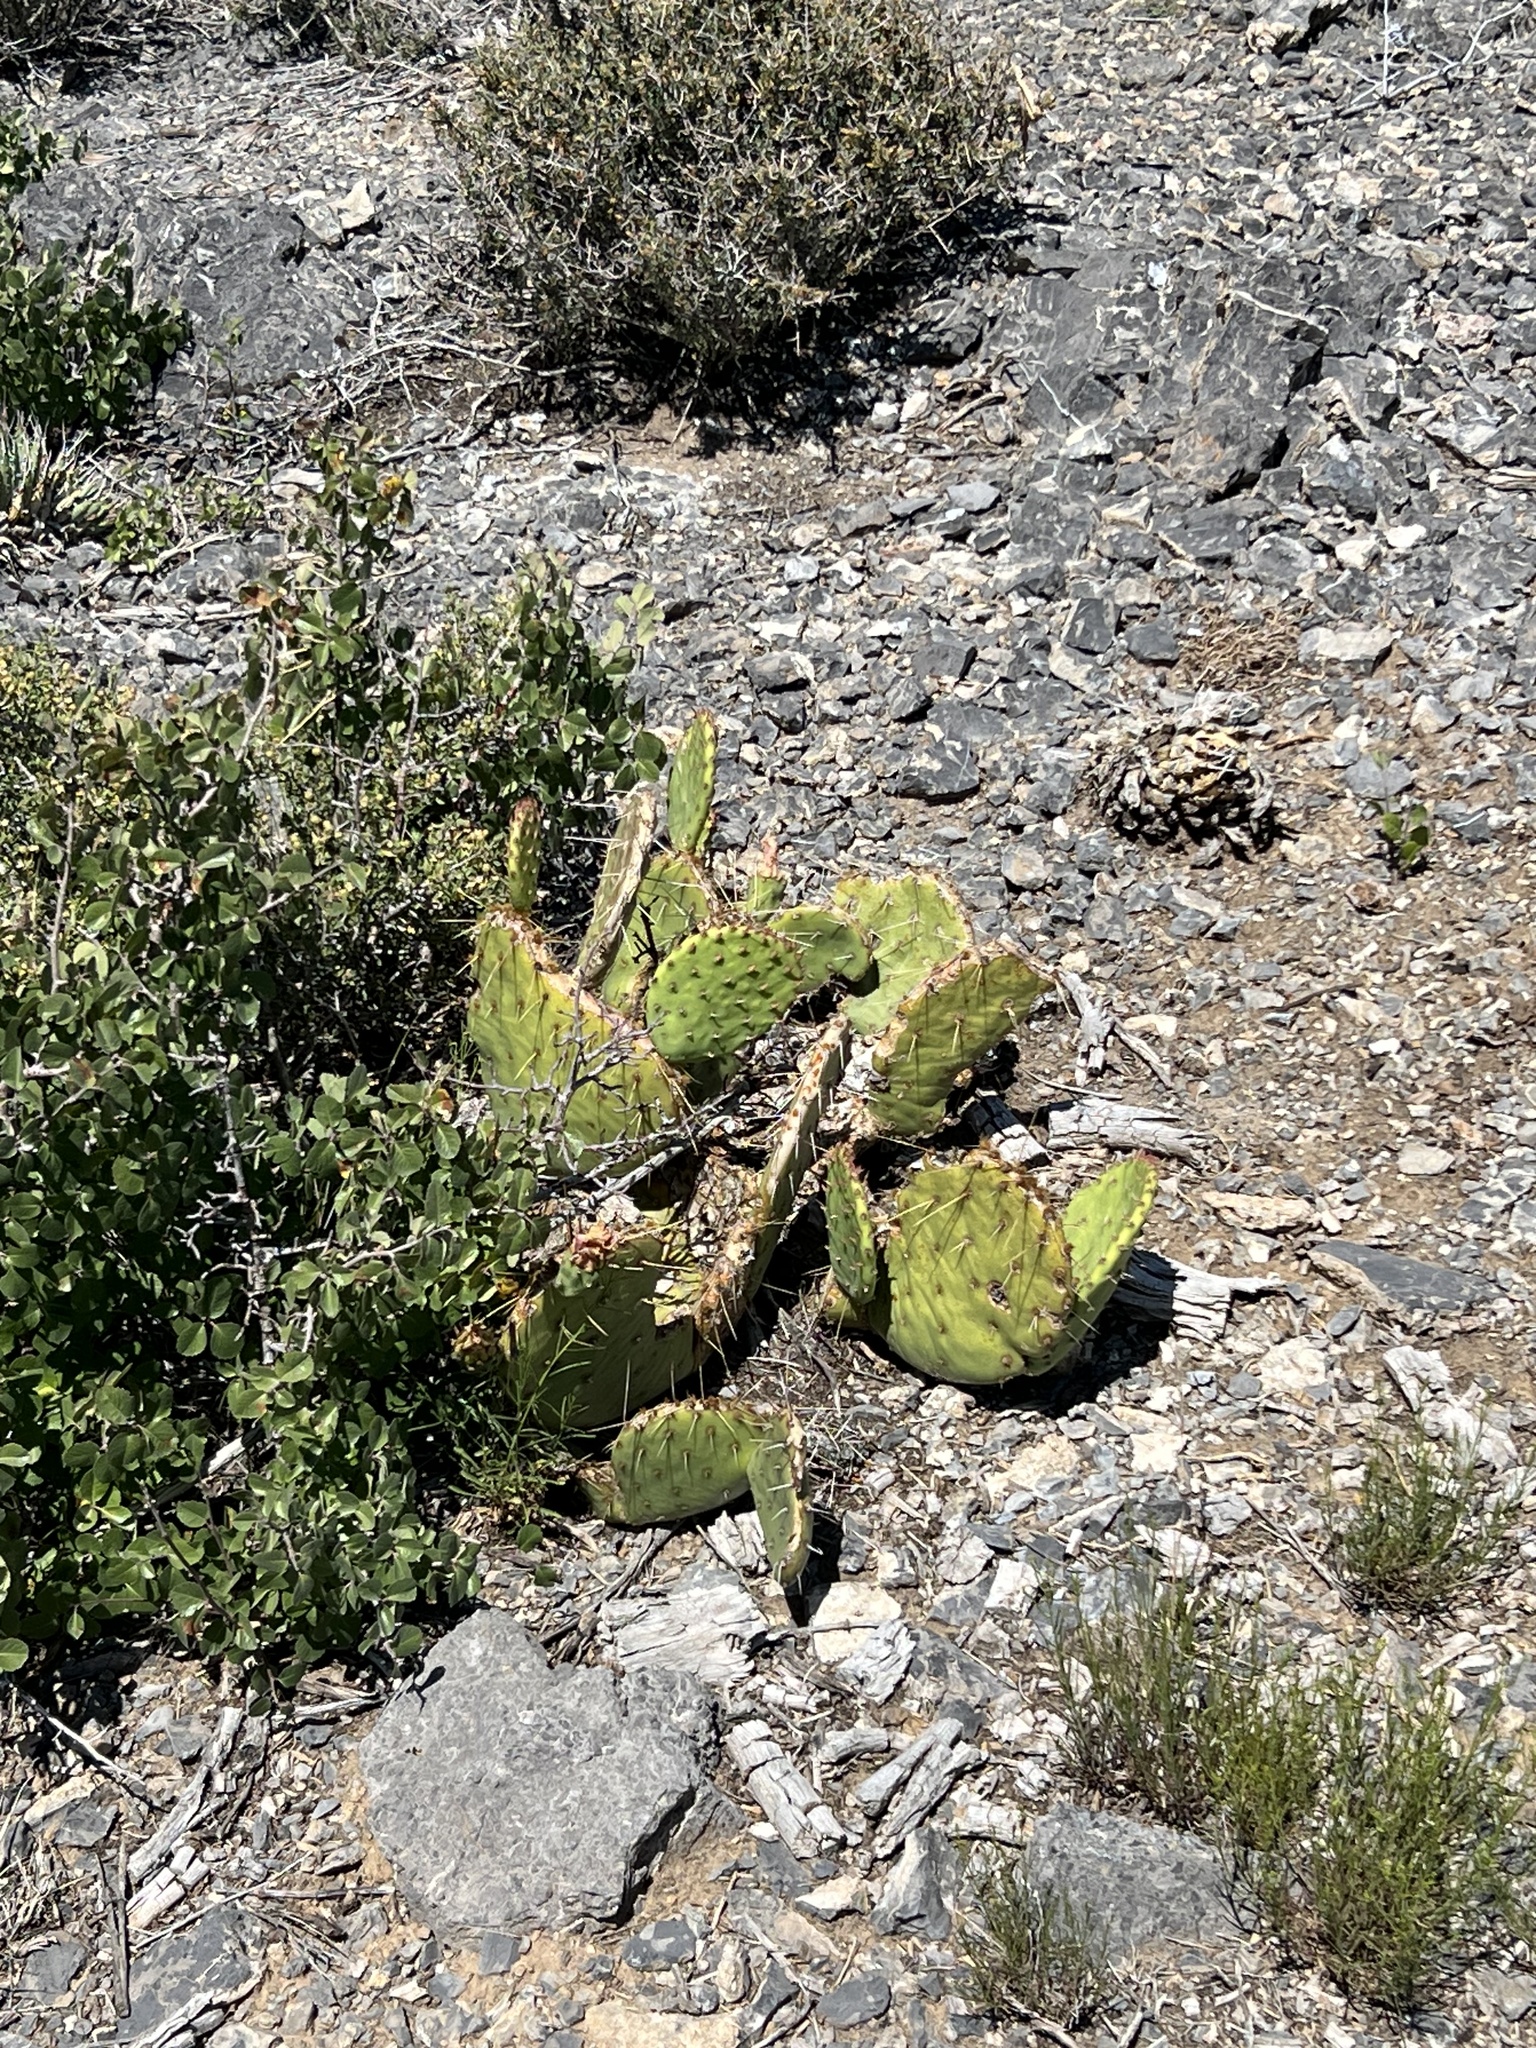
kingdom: Plantae
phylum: Tracheophyta
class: Magnoliopsida
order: Caryophyllales
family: Cactaceae
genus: Opuntia
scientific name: Opuntia phaeacantha
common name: New mexico prickly-pear
